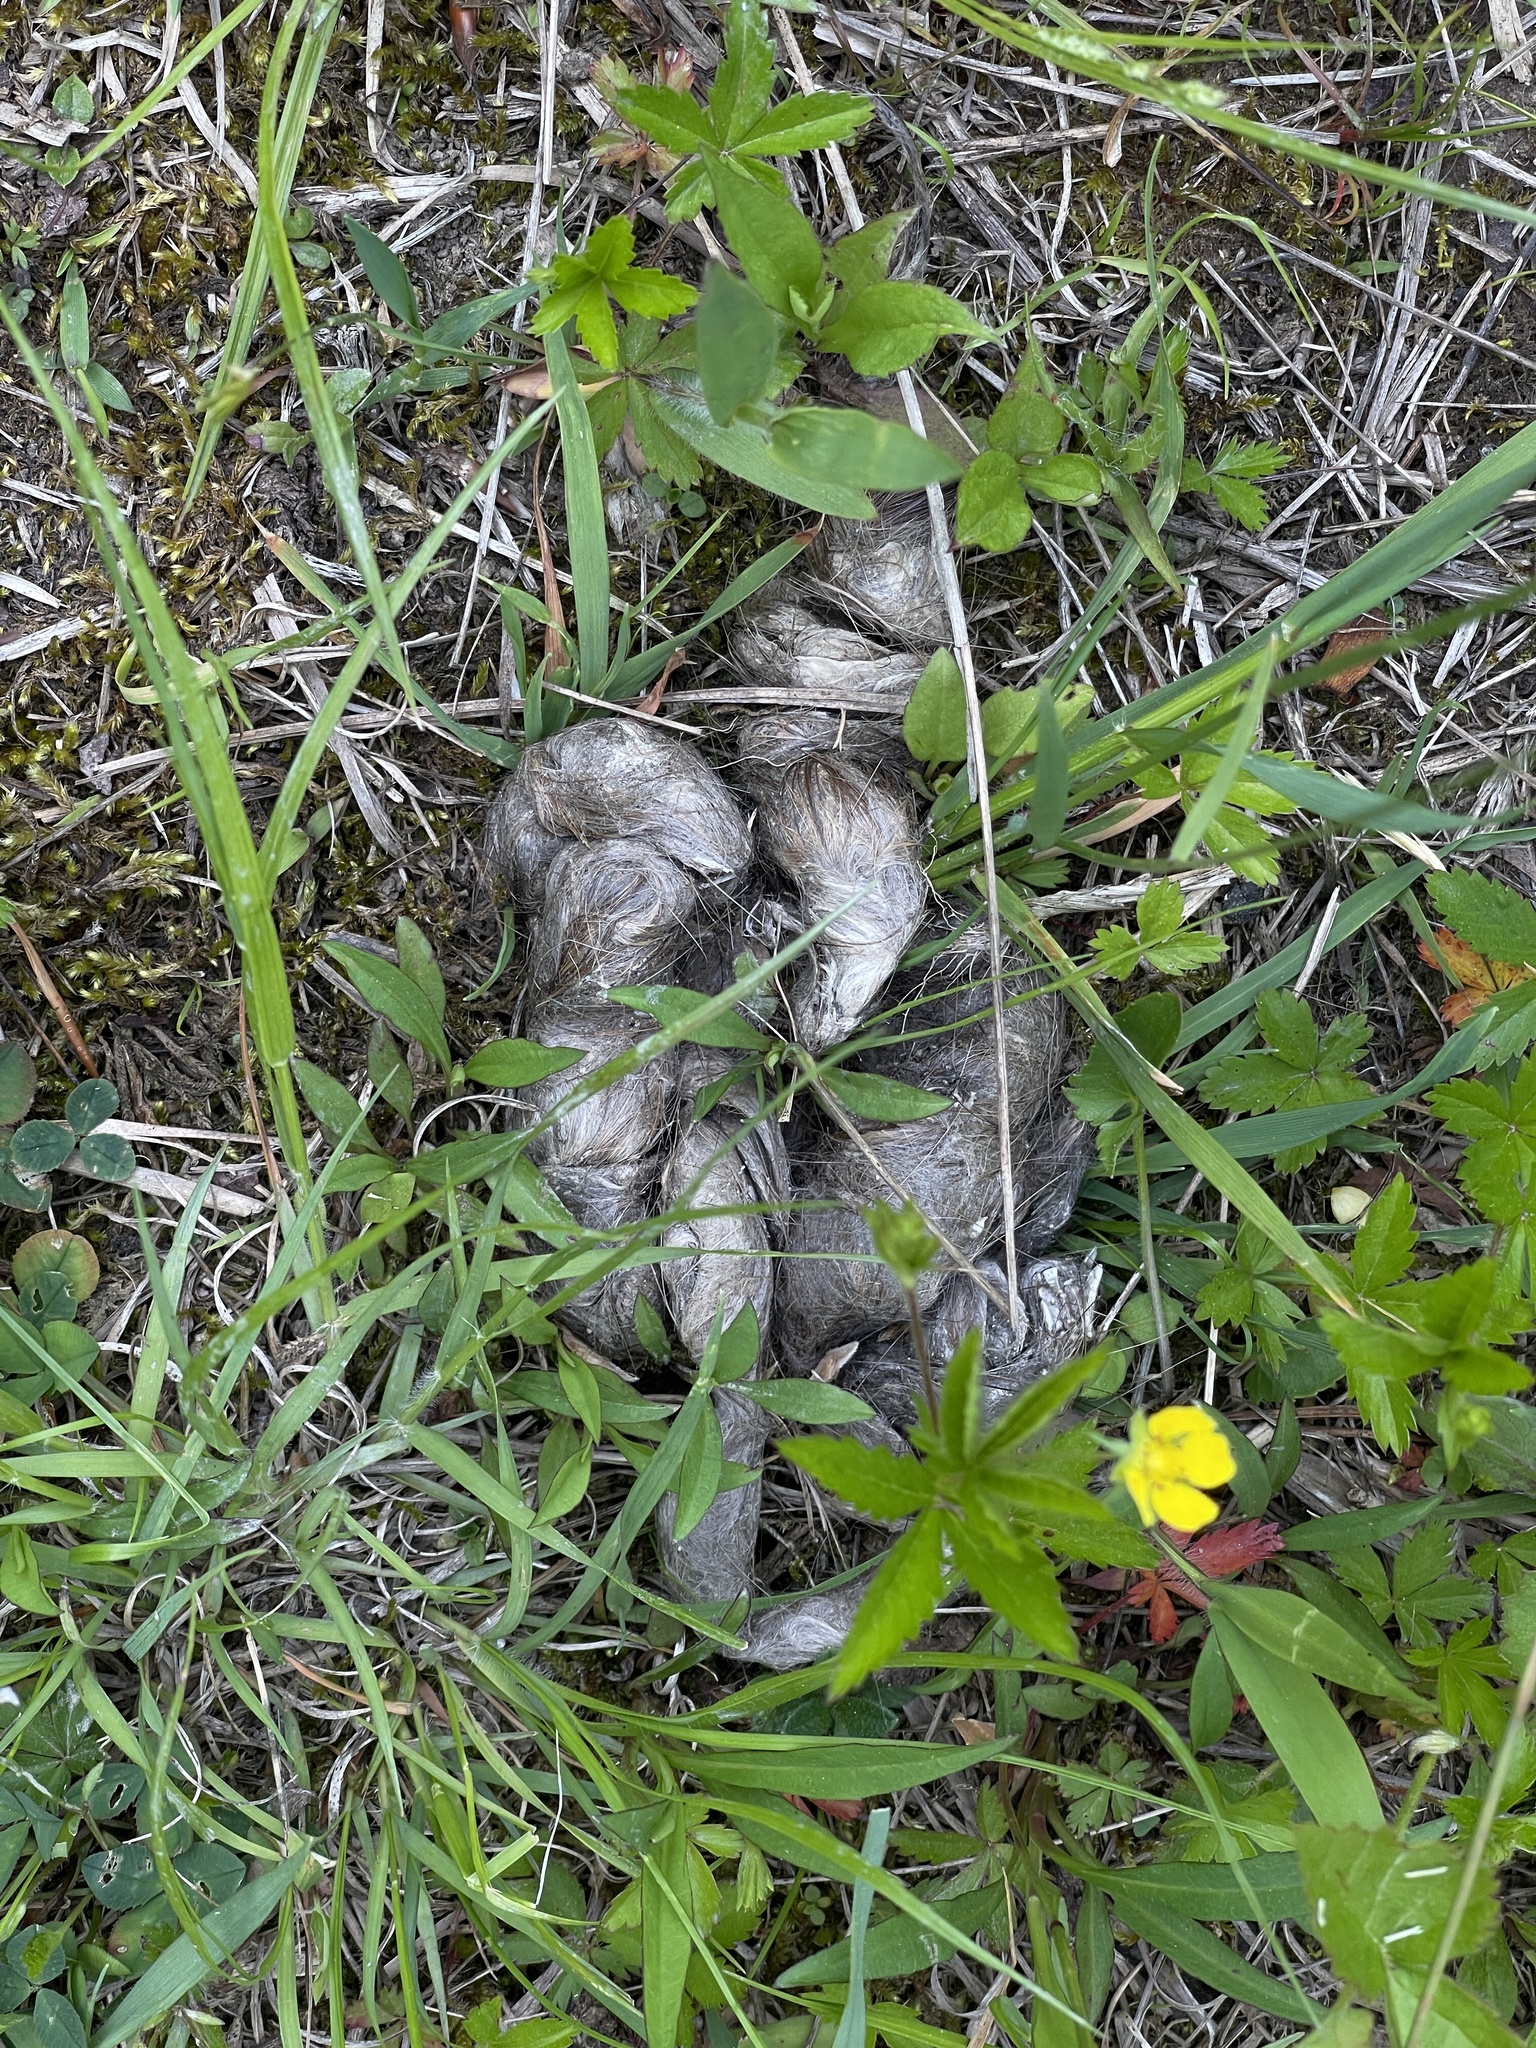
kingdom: Animalia
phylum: Chordata
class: Mammalia
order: Carnivora
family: Canidae
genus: Canis
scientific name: Canis latrans
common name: Coyote
